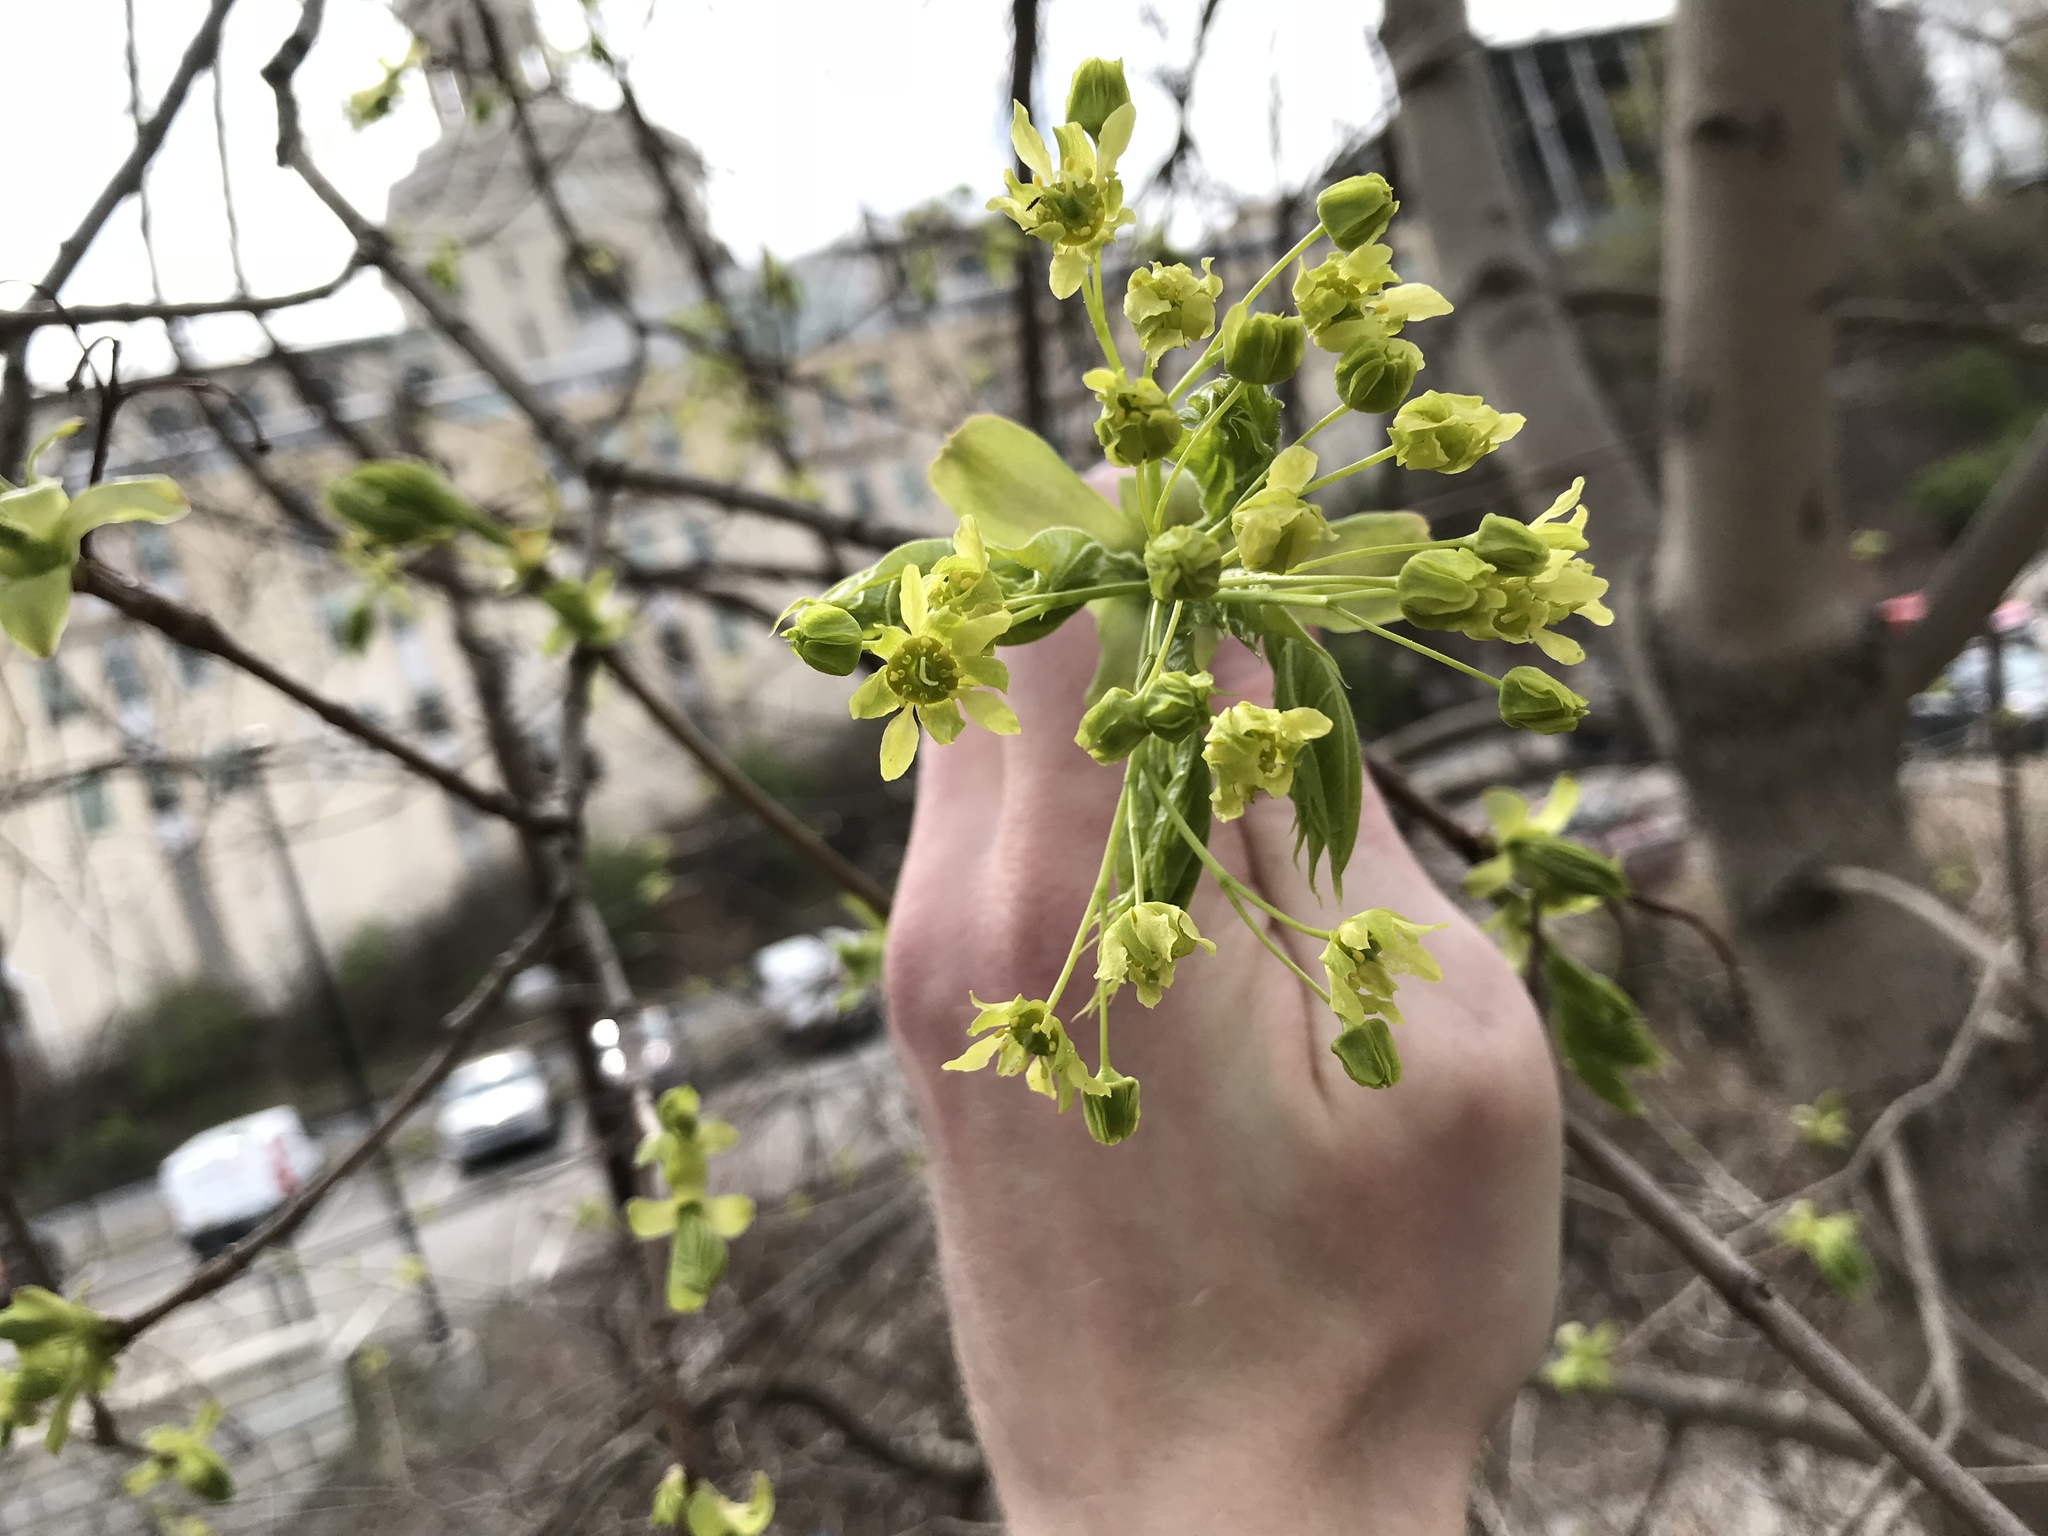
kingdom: Plantae
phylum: Tracheophyta
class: Magnoliopsida
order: Sapindales
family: Sapindaceae
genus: Acer
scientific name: Acer platanoides
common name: Norway maple
